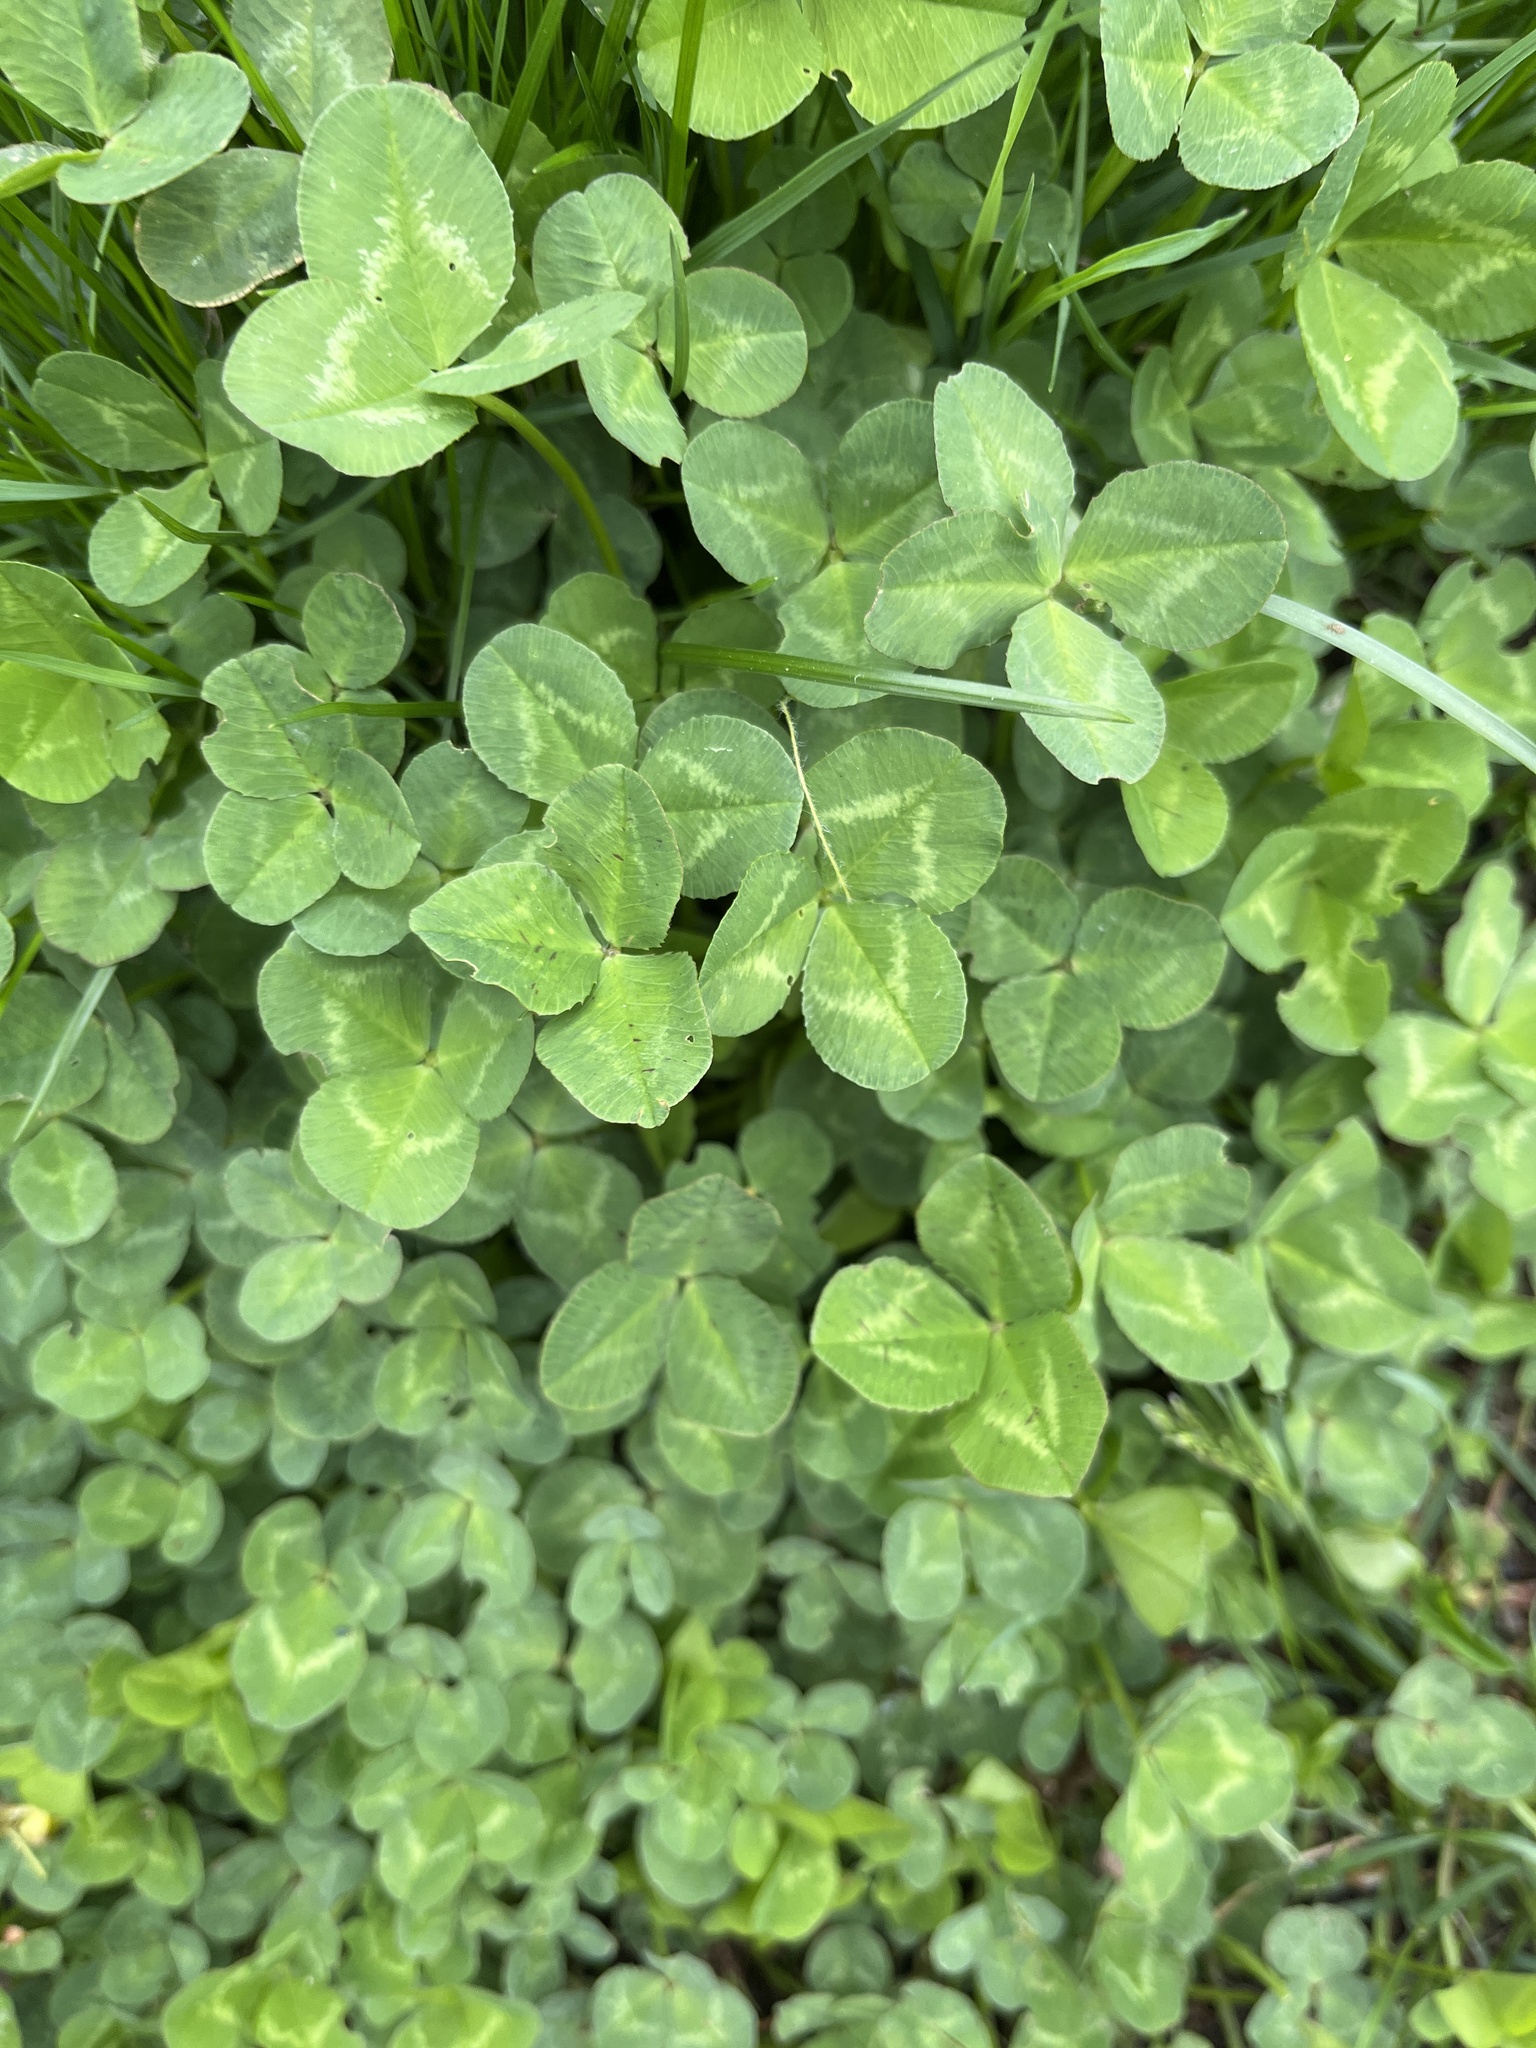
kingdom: Plantae
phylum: Tracheophyta
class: Magnoliopsida
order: Fabales
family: Fabaceae
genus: Trifolium
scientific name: Trifolium repens
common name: White clover
